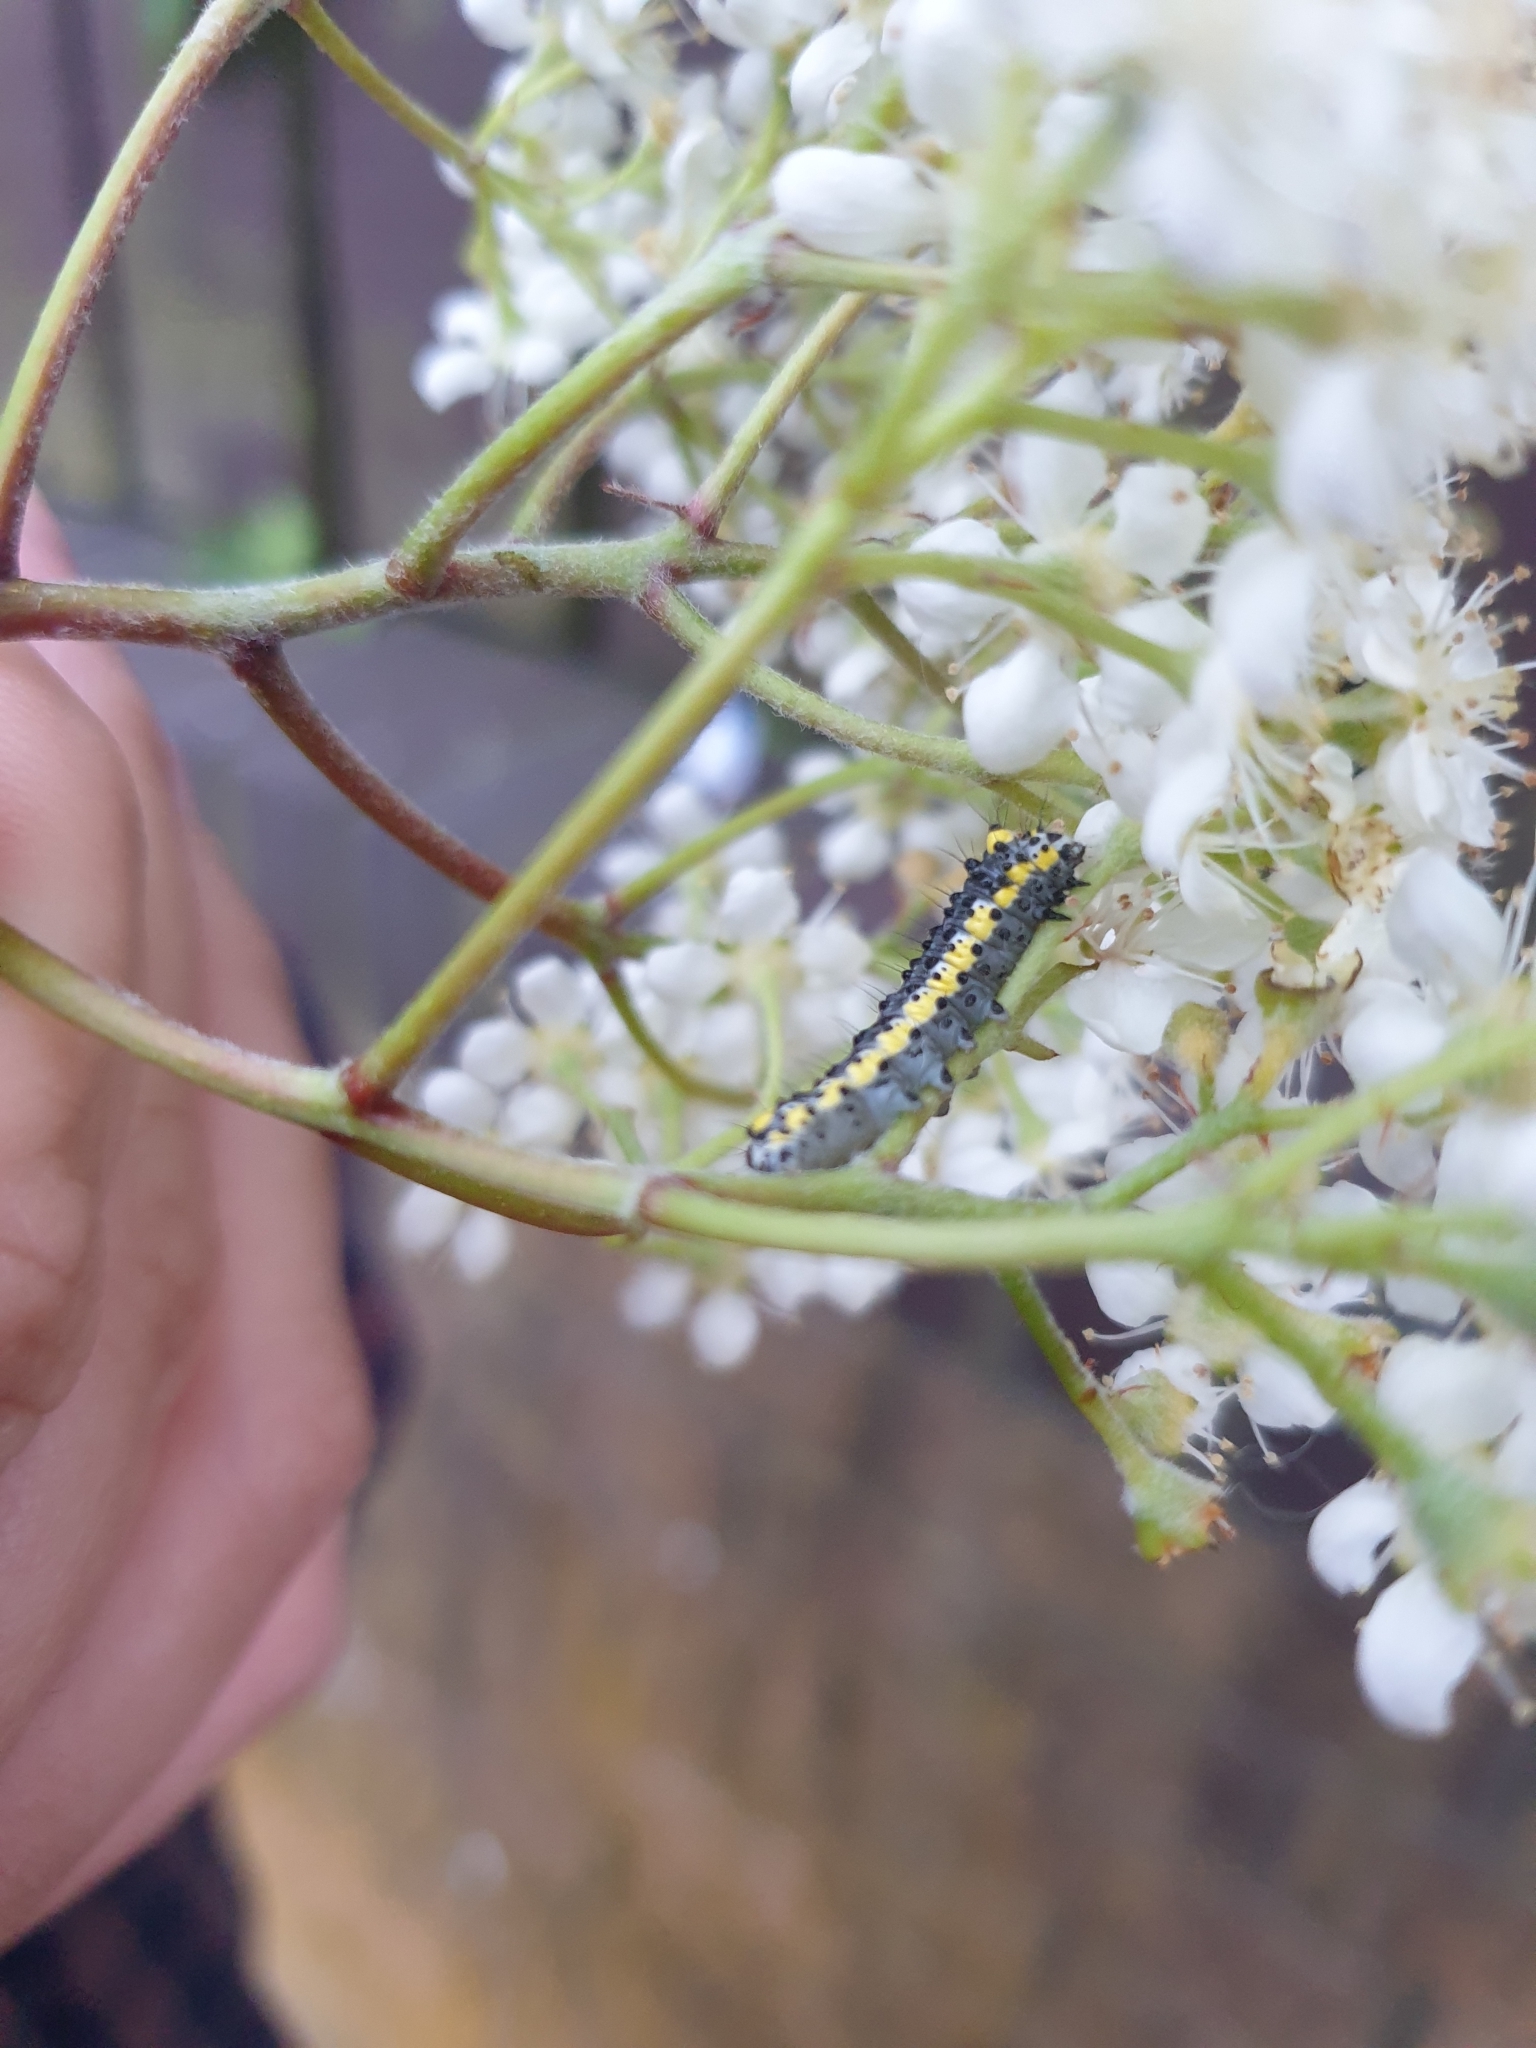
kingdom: Animalia
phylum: Arthropoda
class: Insecta
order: Lepidoptera
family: Noctuidae
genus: Diloba
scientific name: Diloba caeruleocephala
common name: Figure of eight
